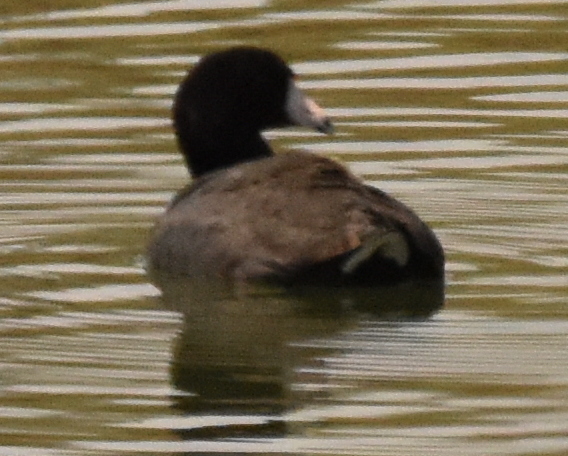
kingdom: Animalia
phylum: Chordata
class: Aves
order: Gruiformes
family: Rallidae
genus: Fulica
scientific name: Fulica americana
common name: American coot
